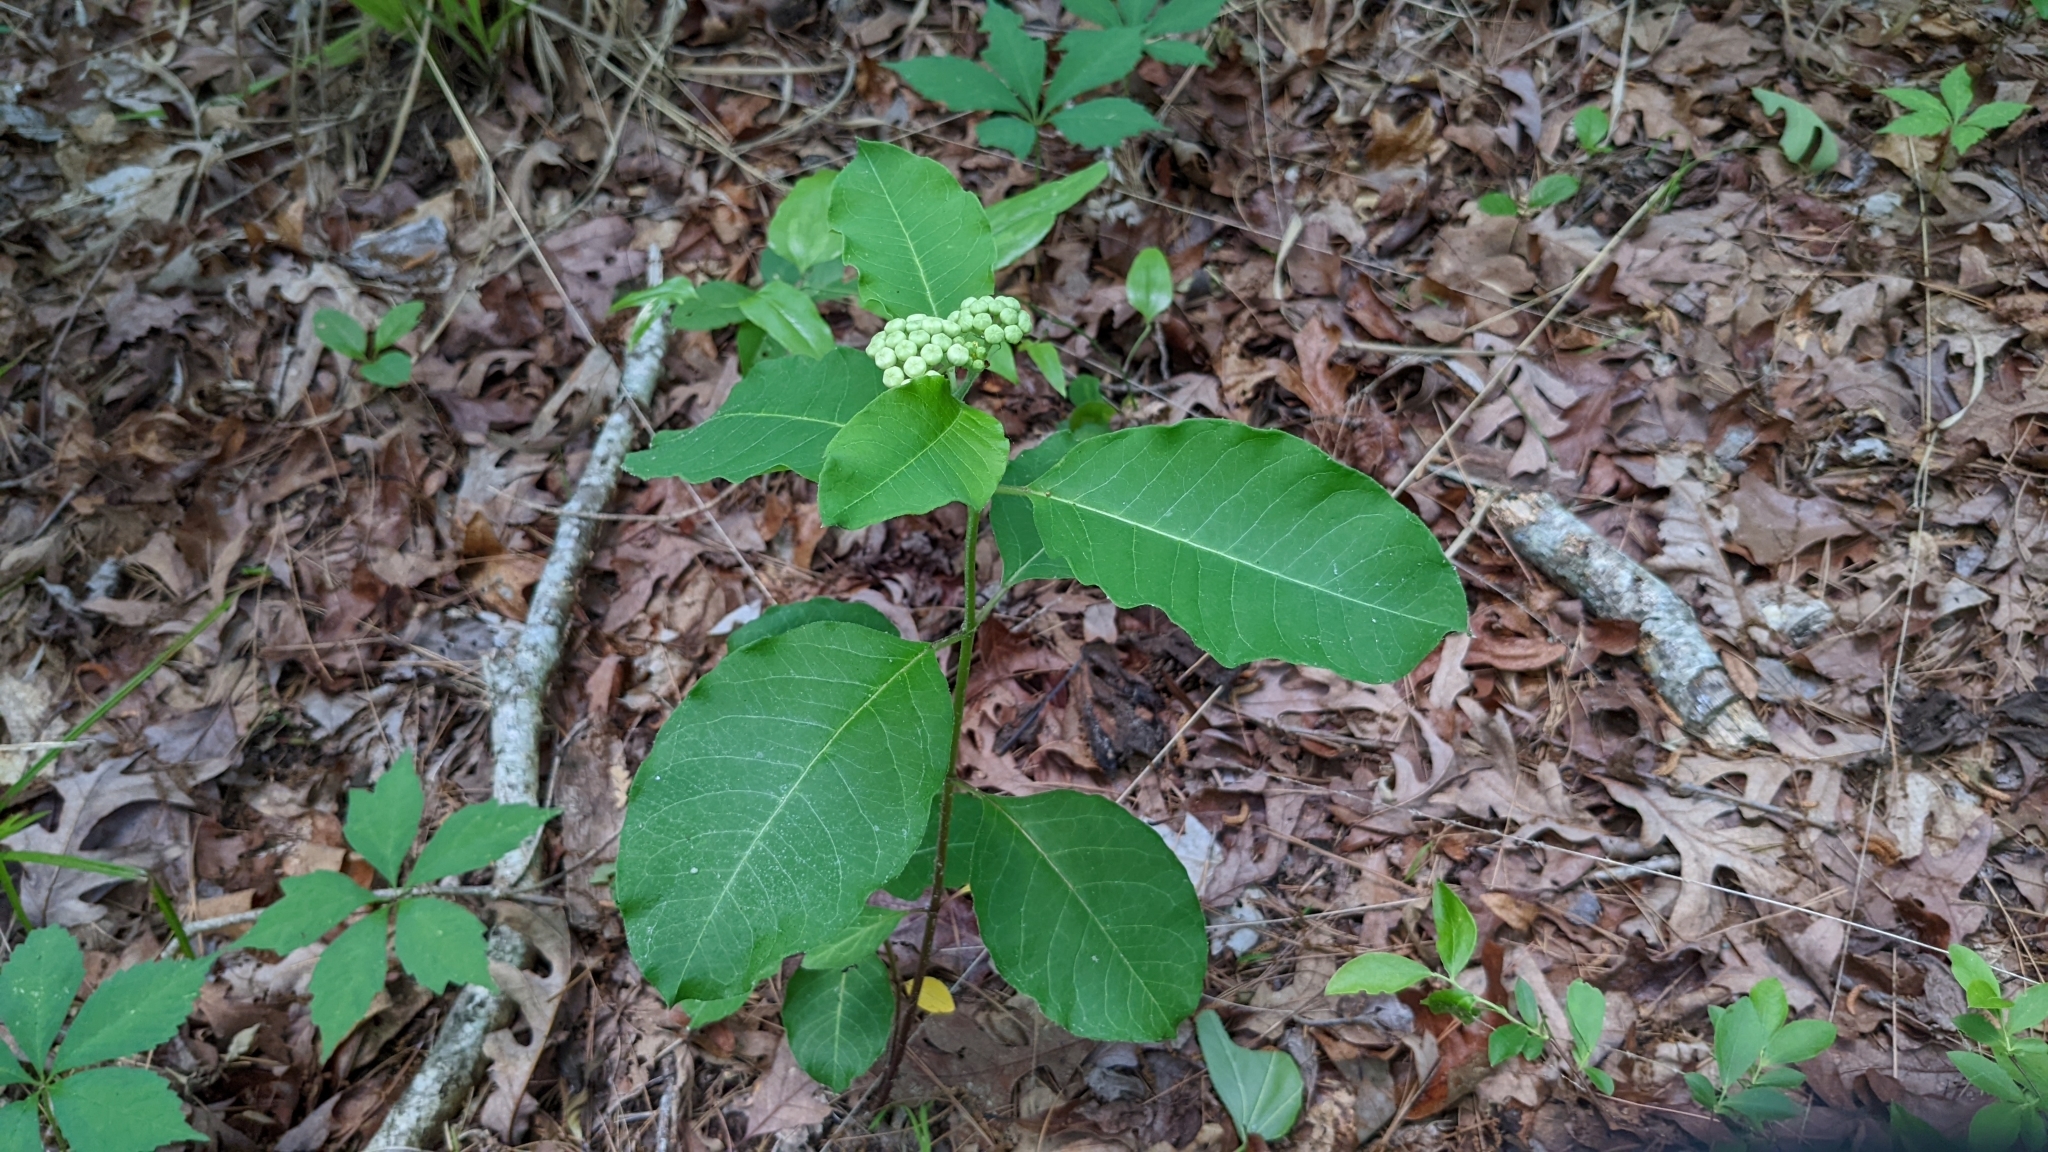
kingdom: Plantae
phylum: Tracheophyta
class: Magnoliopsida
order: Gentianales
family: Apocynaceae
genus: Asclepias
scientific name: Asclepias variegata
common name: Variegated milkweed
